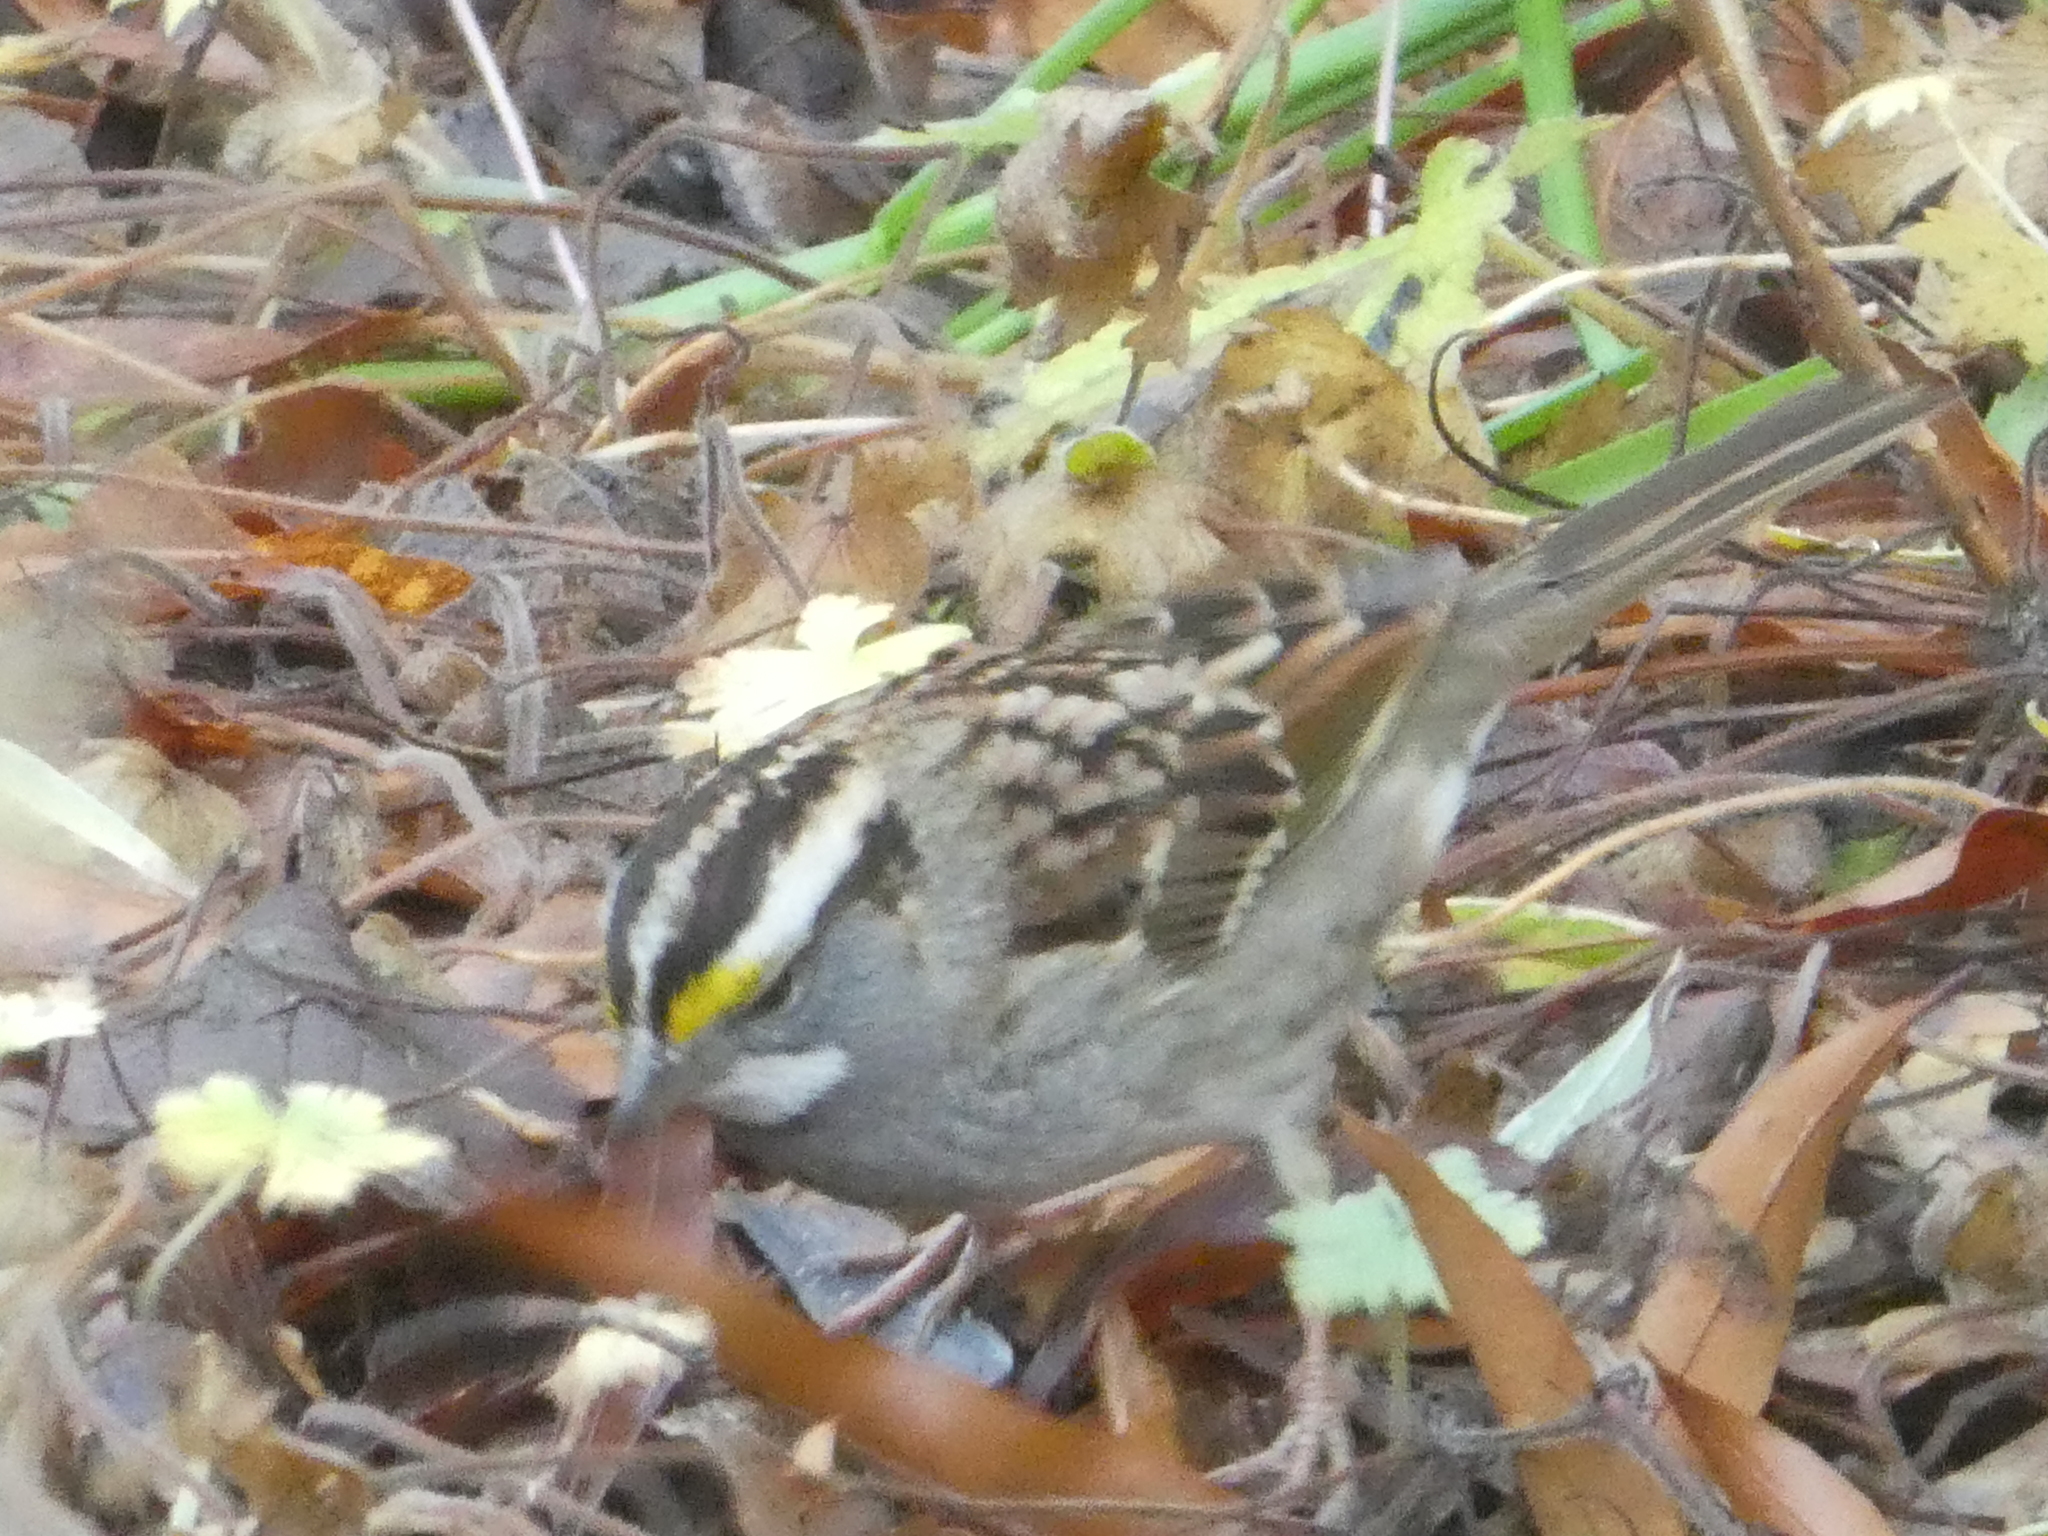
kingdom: Animalia
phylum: Chordata
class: Aves
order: Passeriformes
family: Passerellidae
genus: Zonotrichia
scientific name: Zonotrichia albicollis
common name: White-throated sparrow
